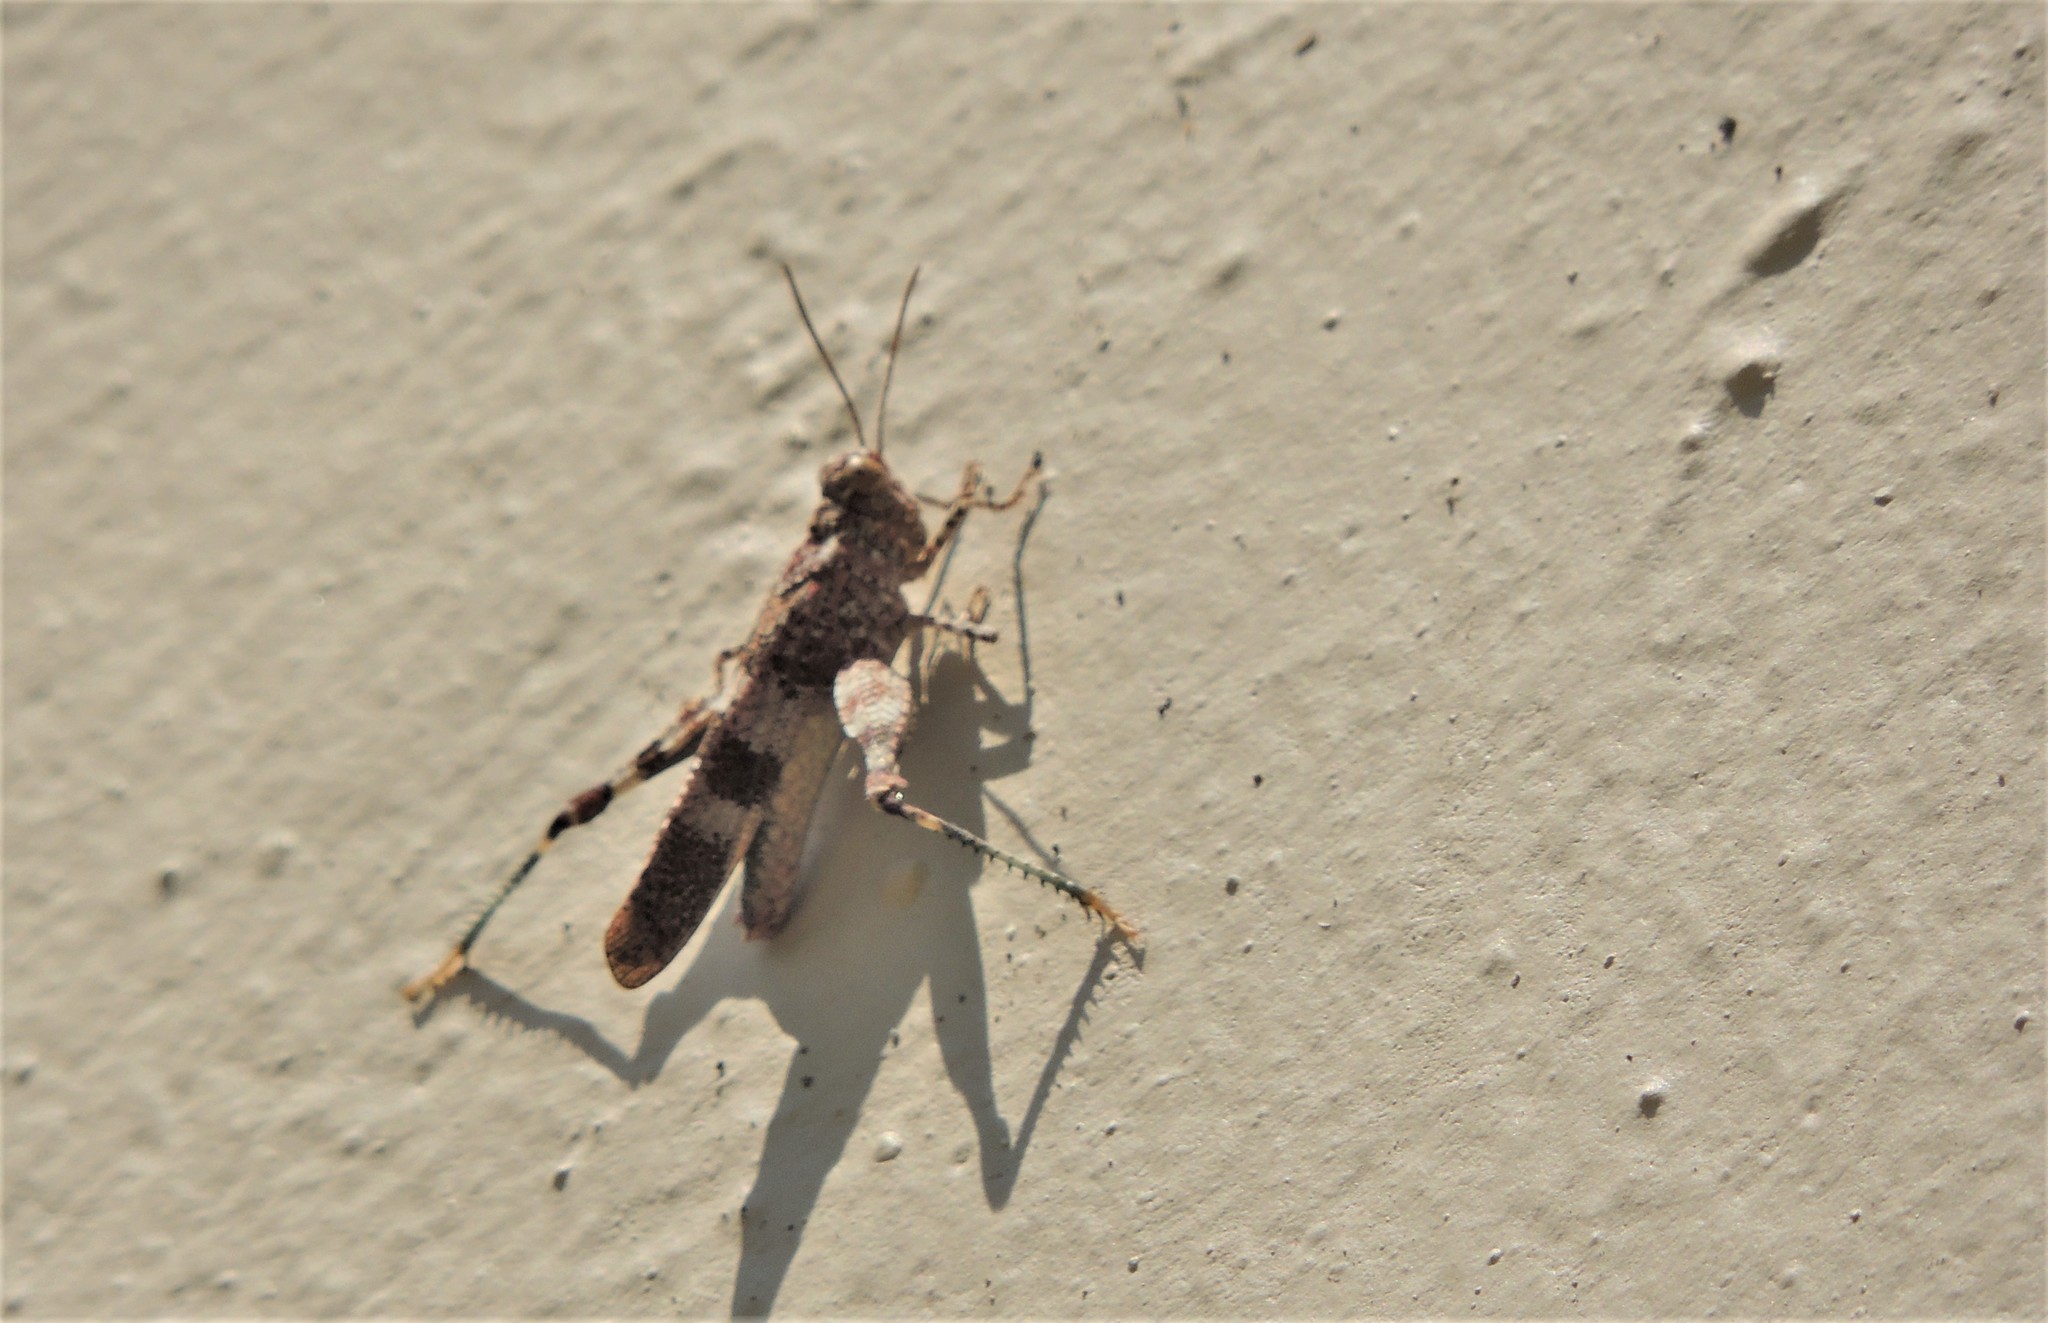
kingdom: Animalia
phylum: Arthropoda
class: Insecta
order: Orthoptera
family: Acrididae
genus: Oedipoda
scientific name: Oedipoda caerulescens
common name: Blue-winged grasshopper
